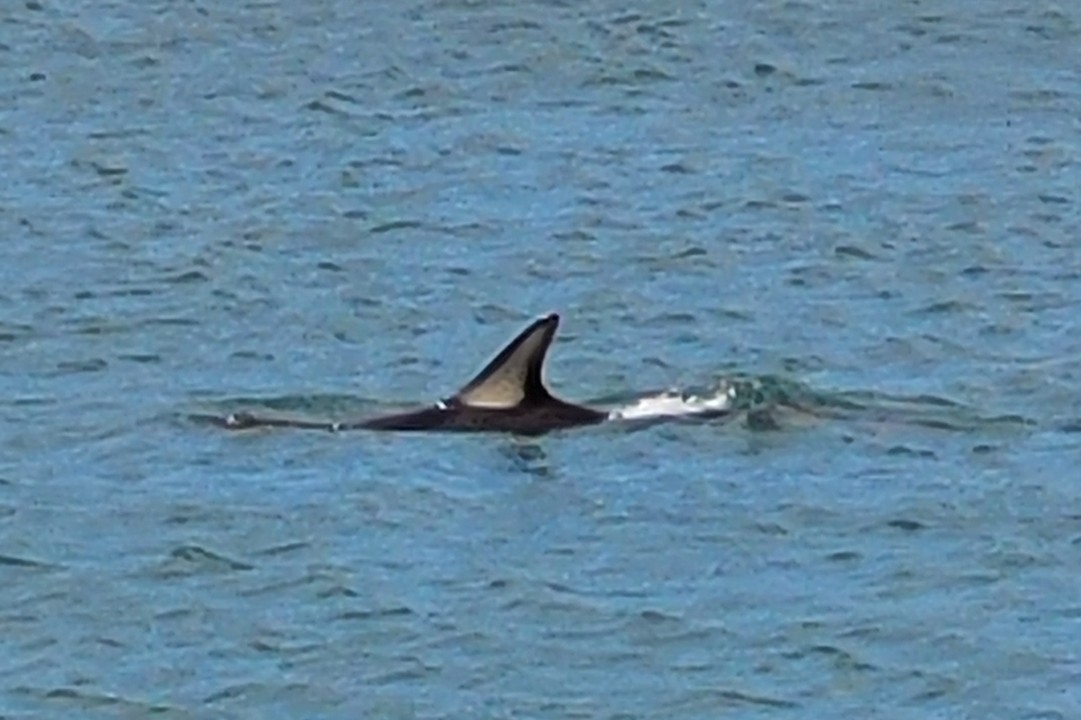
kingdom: Animalia
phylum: Chordata
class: Mammalia
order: Cetacea
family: Delphinidae
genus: Delphinus
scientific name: Delphinus delphis
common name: Common dolphin
